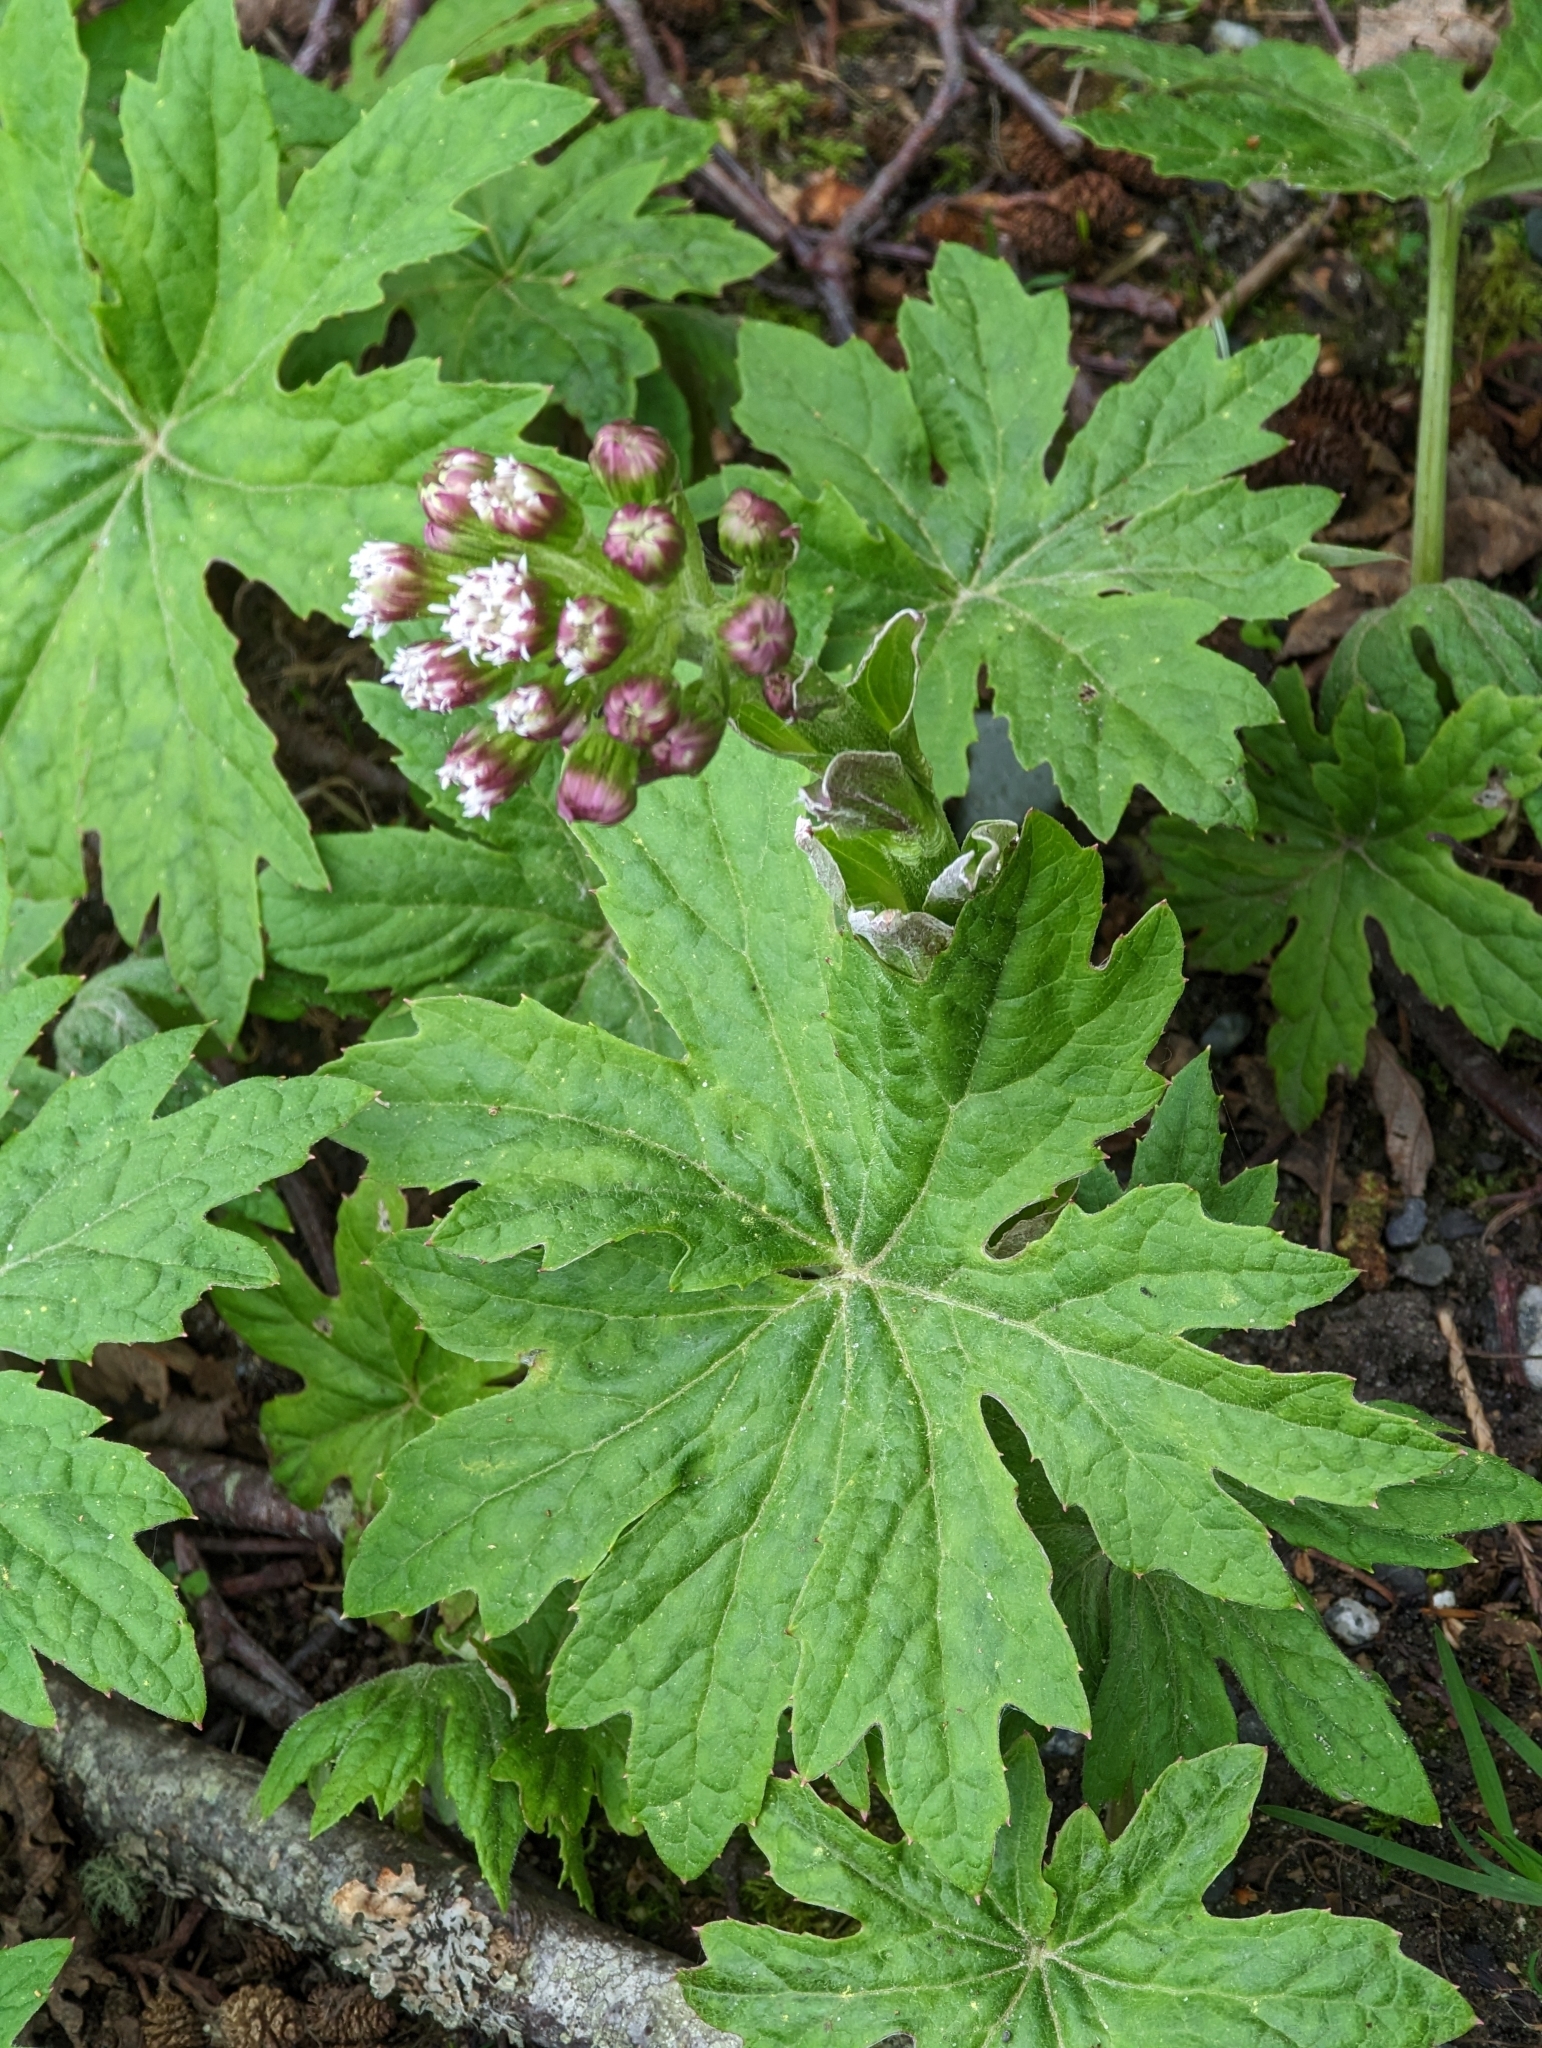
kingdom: Plantae
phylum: Tracheophyta
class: Magnoliopsida
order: Asterales
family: Asteraceae
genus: Petasites
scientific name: Petasites frigidus
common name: Arctic butterbur
